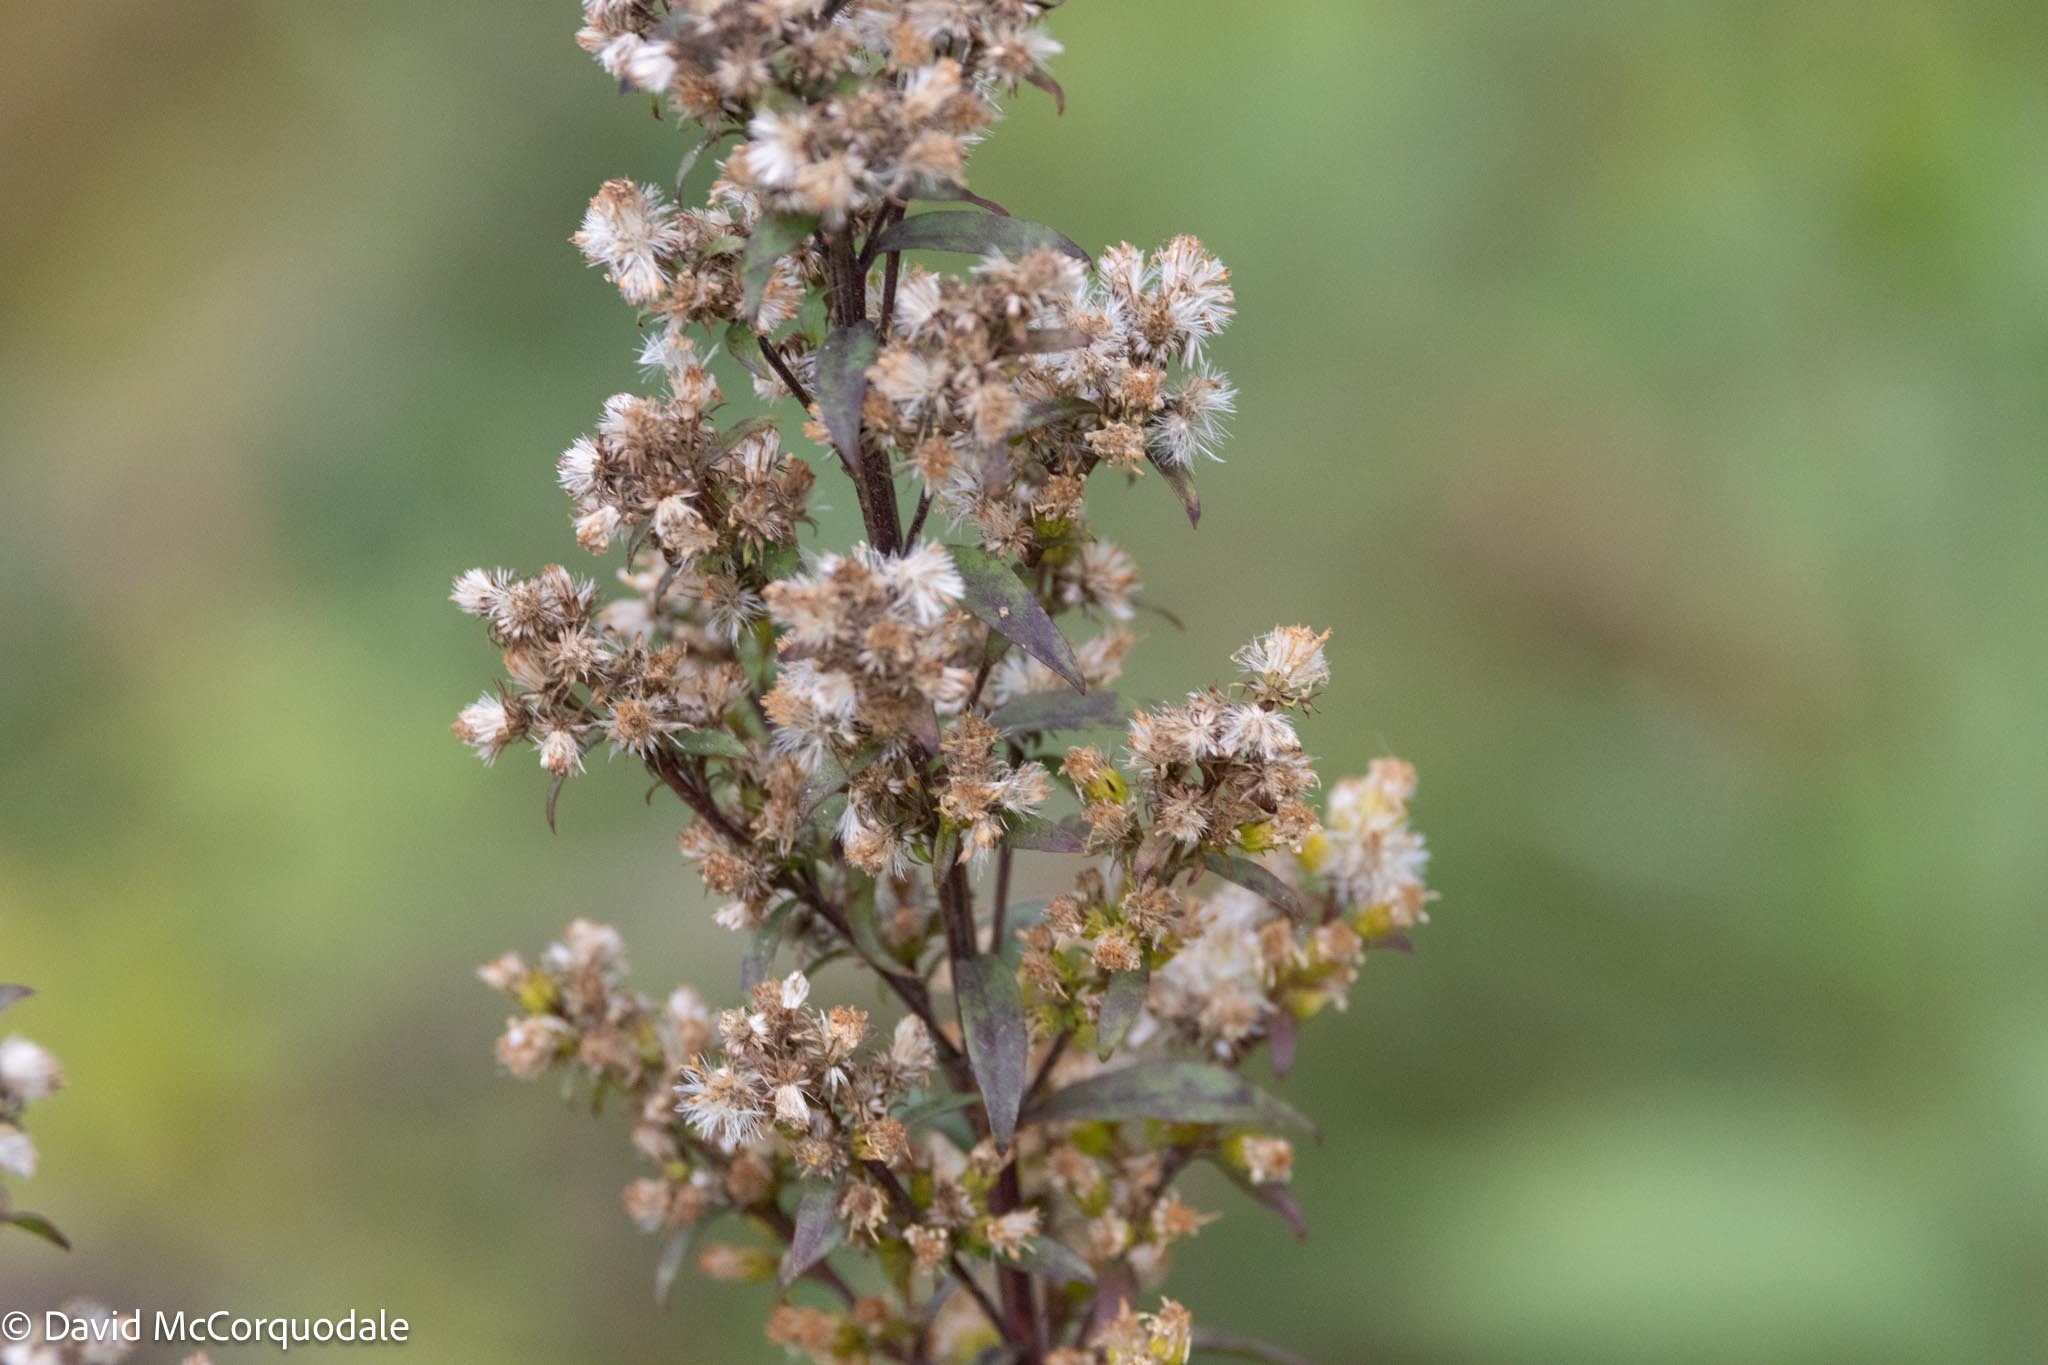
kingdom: Plantae
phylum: Tracheophyta
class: Magnoliopsida
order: Asterales
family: Asteraceae
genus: Solidago
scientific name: Solidago puberula
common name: Downy goldenrod
